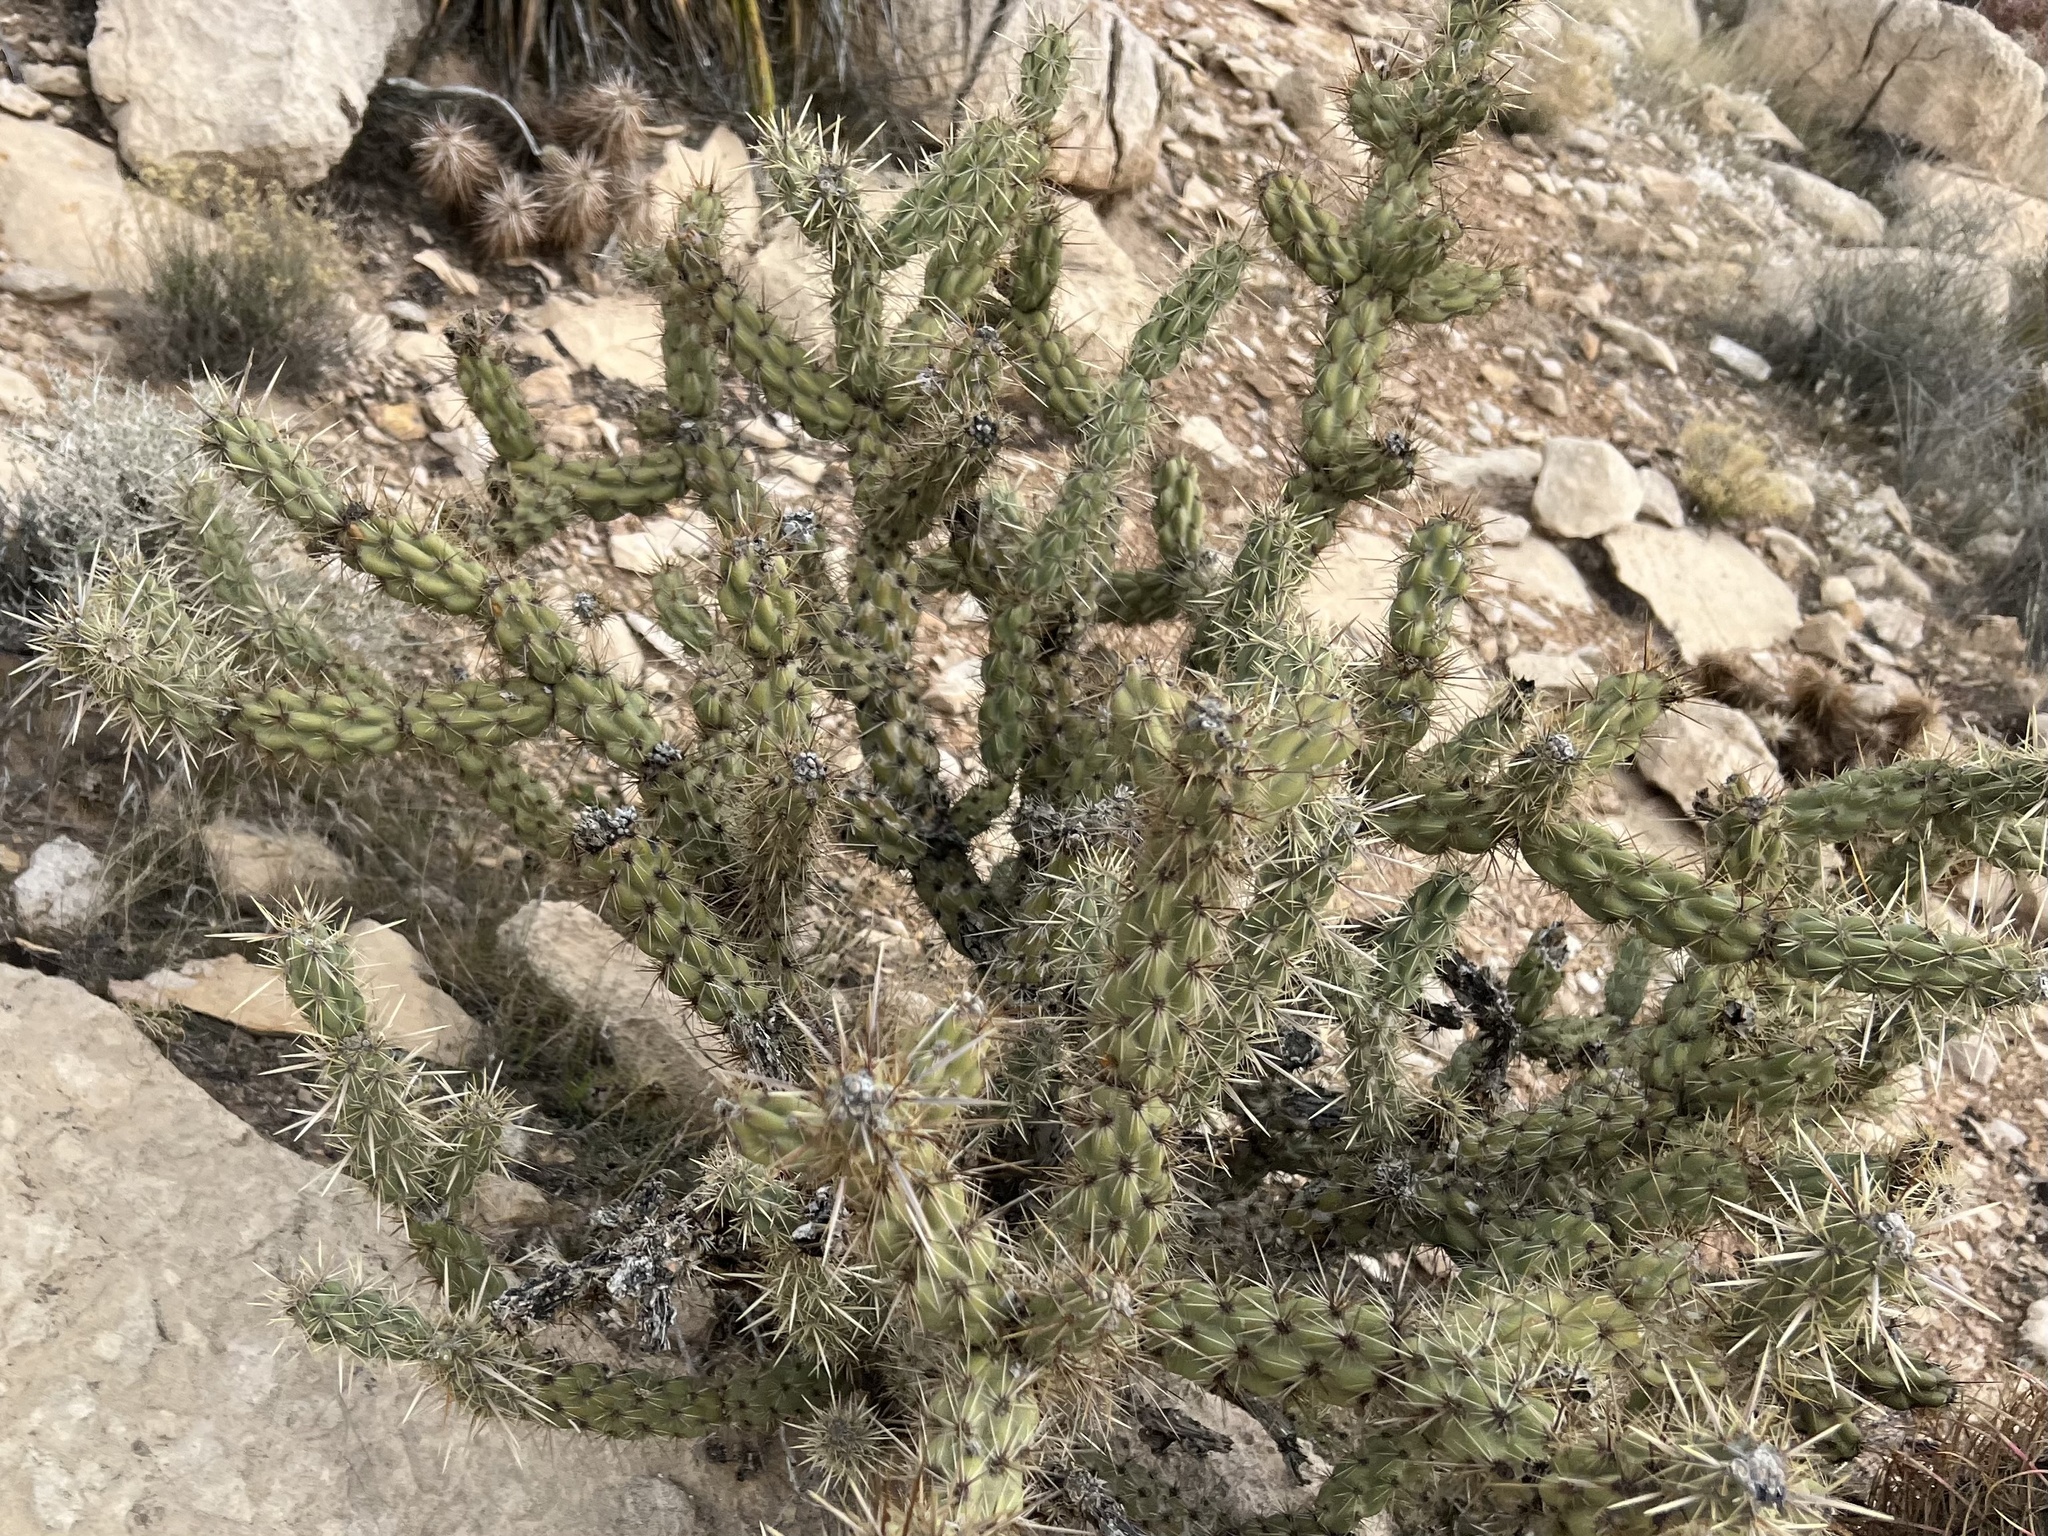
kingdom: Plantae
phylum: Tracheophyta
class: Magnoliopsida
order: Caryophyllales
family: Cactaceae
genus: Cylindropuntia
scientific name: Cylindropuntia acanthocarpa
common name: Buckhorn cholla
